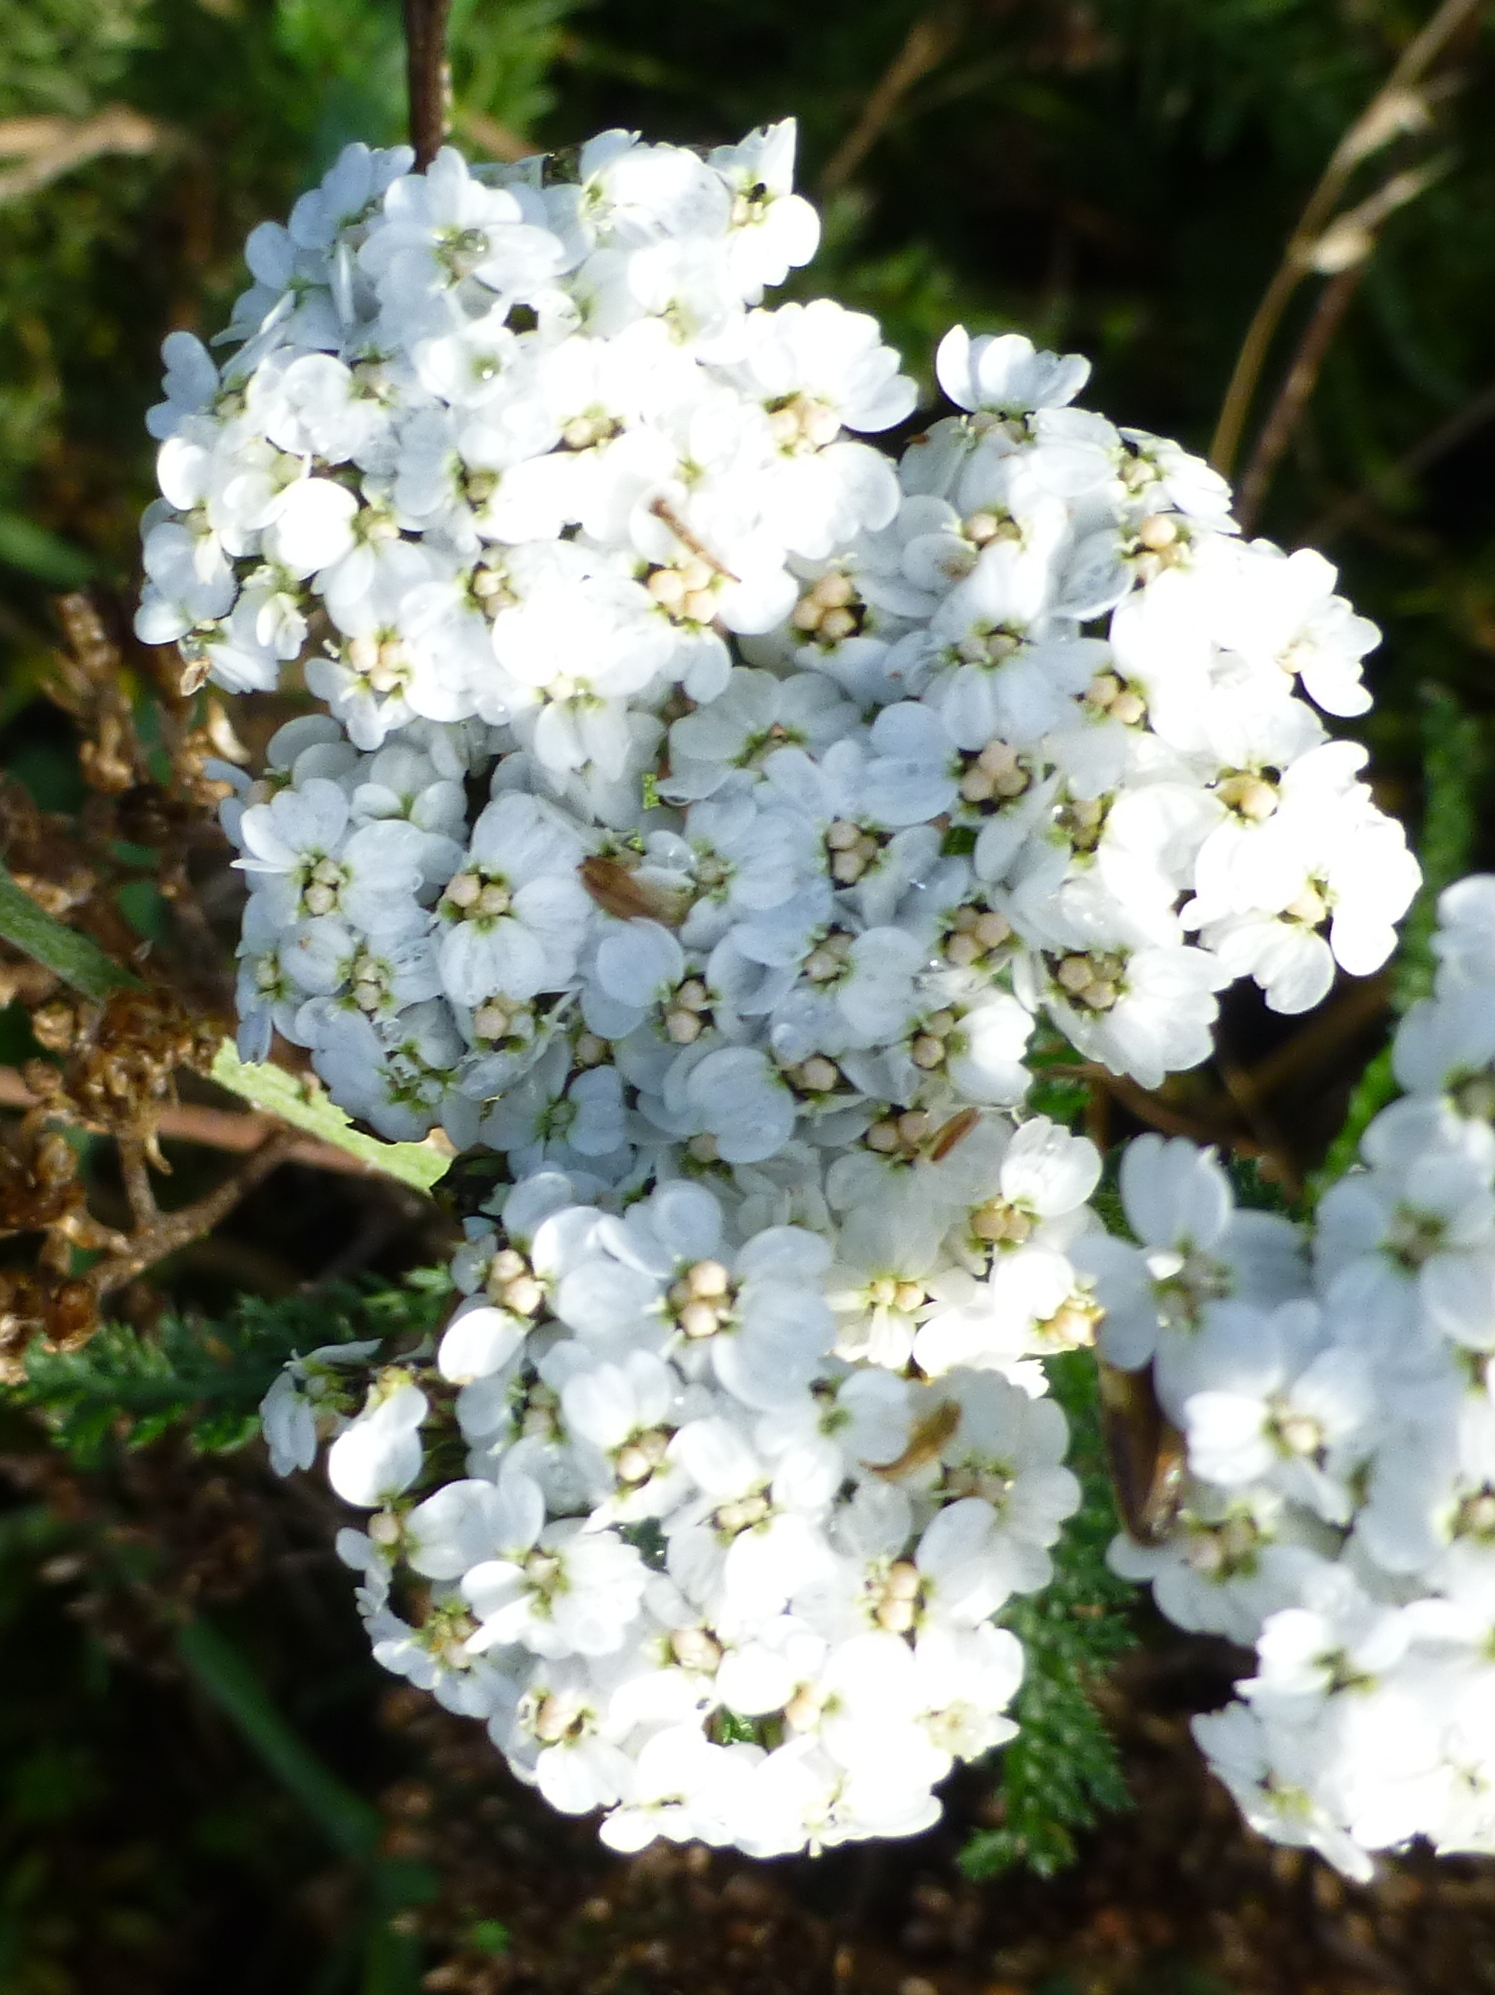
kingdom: Plantae
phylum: Tracheophyta
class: Magnoliopsida
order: Asterales
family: Asteraceae
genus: Achillea
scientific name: Achillea millefolium
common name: Yarrow
